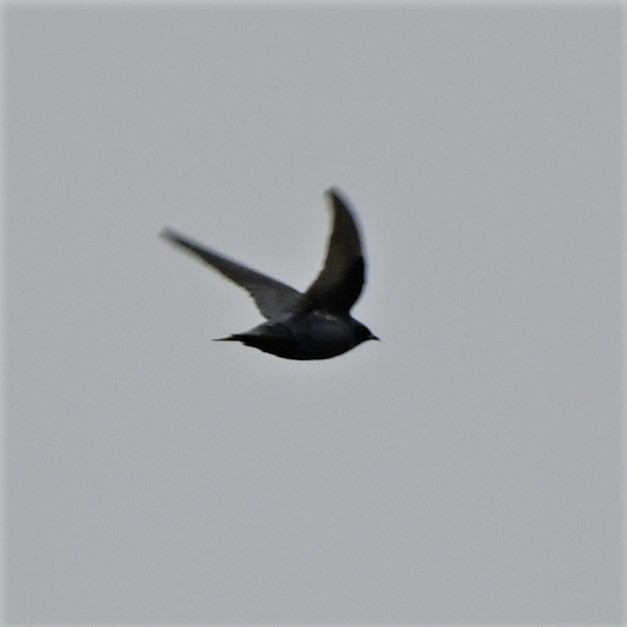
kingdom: Animalia
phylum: Chordata
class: Aves
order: Passeriformes
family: Hirundinidae
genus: Progne
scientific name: Progne subis
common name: Purple martin
